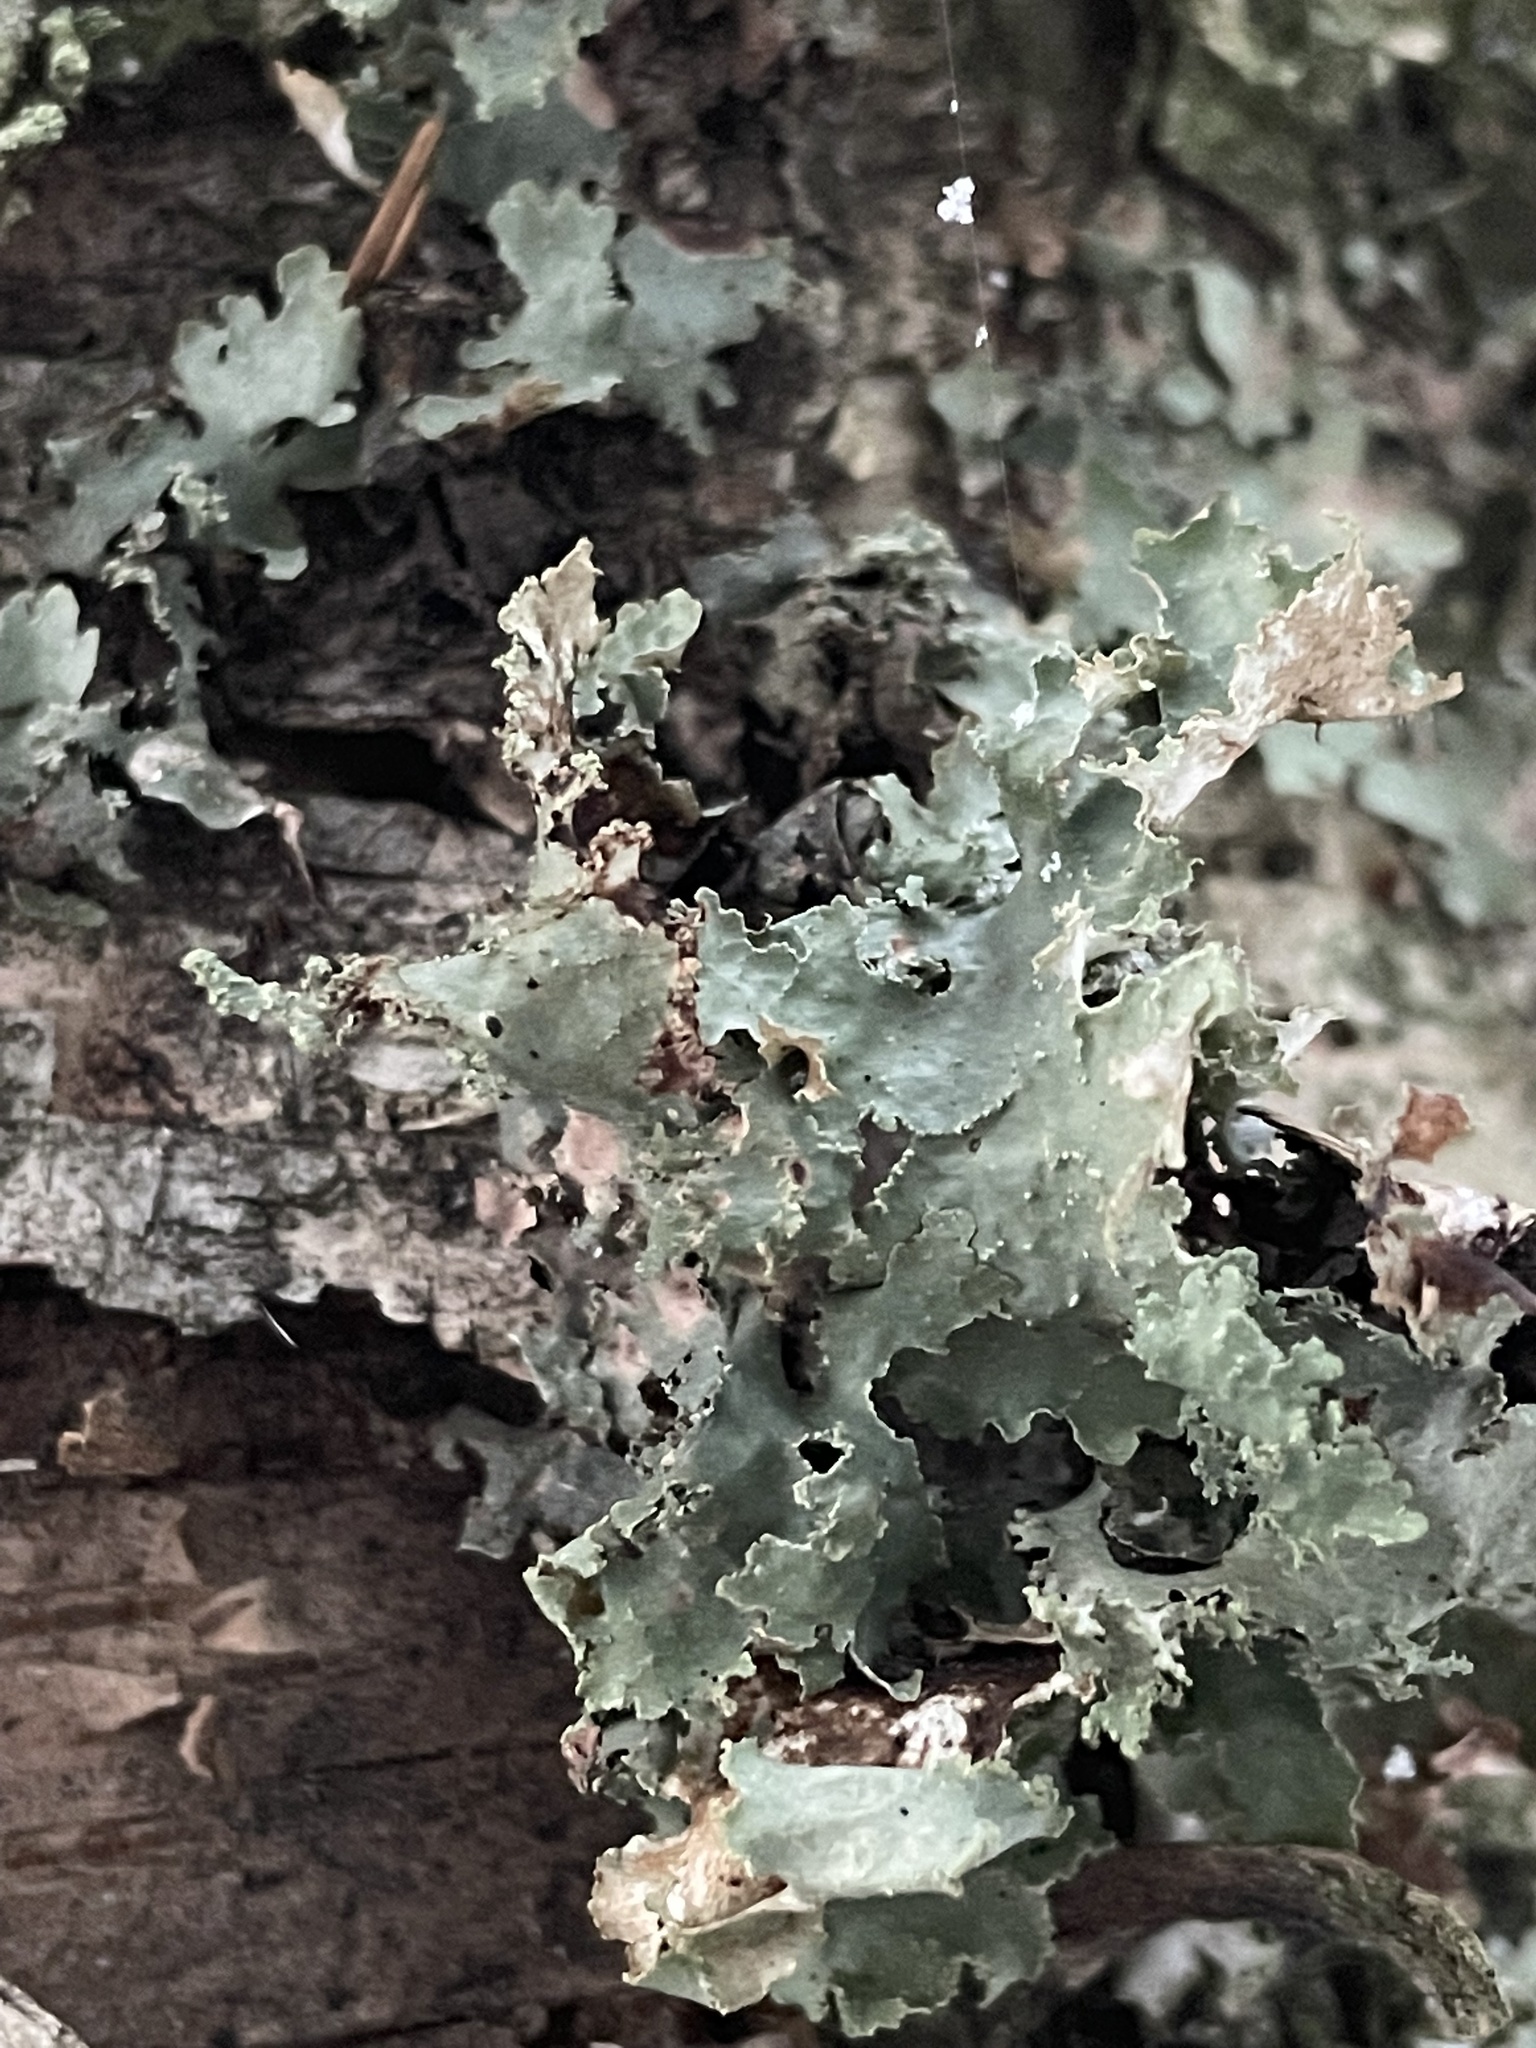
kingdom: Fungi
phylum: Ascomycota
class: Lecanoromycetes
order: Lecanorales
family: Parmeliaceae
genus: Platismatia
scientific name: Platismatia glauca
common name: Varied rag lichen
